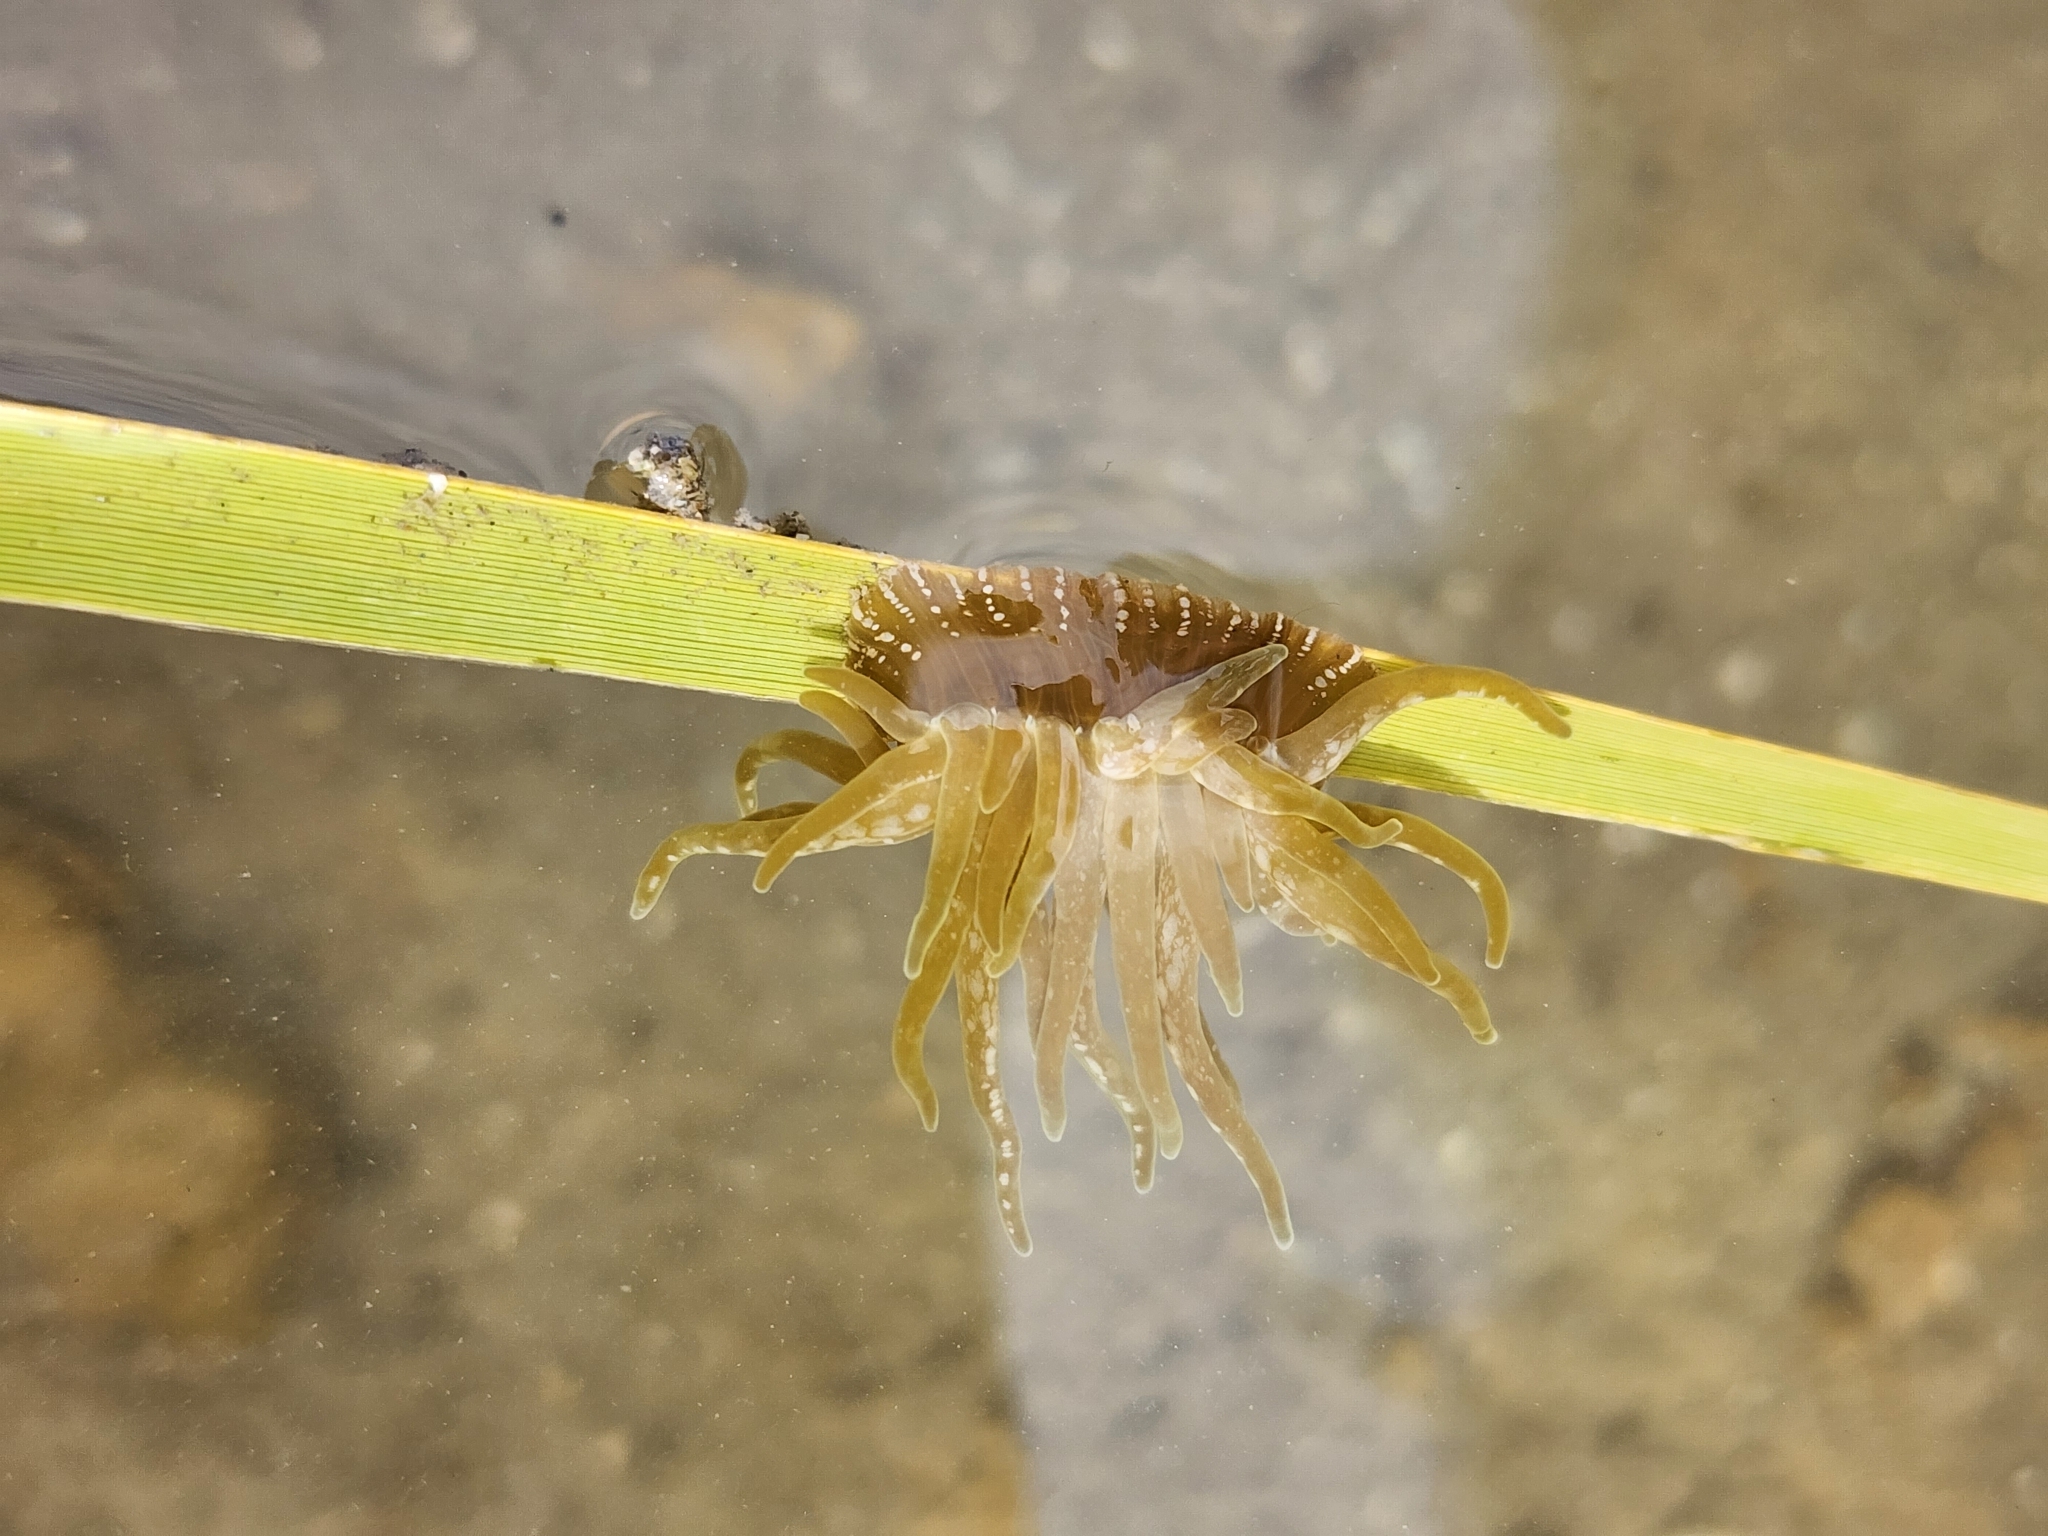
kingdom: Animalia
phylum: Cnidaria
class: Anthozoa
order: Actiniaria
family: Actiniidae
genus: Paranemonia
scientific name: Paranemonia cinerea
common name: Grass crack anemone
